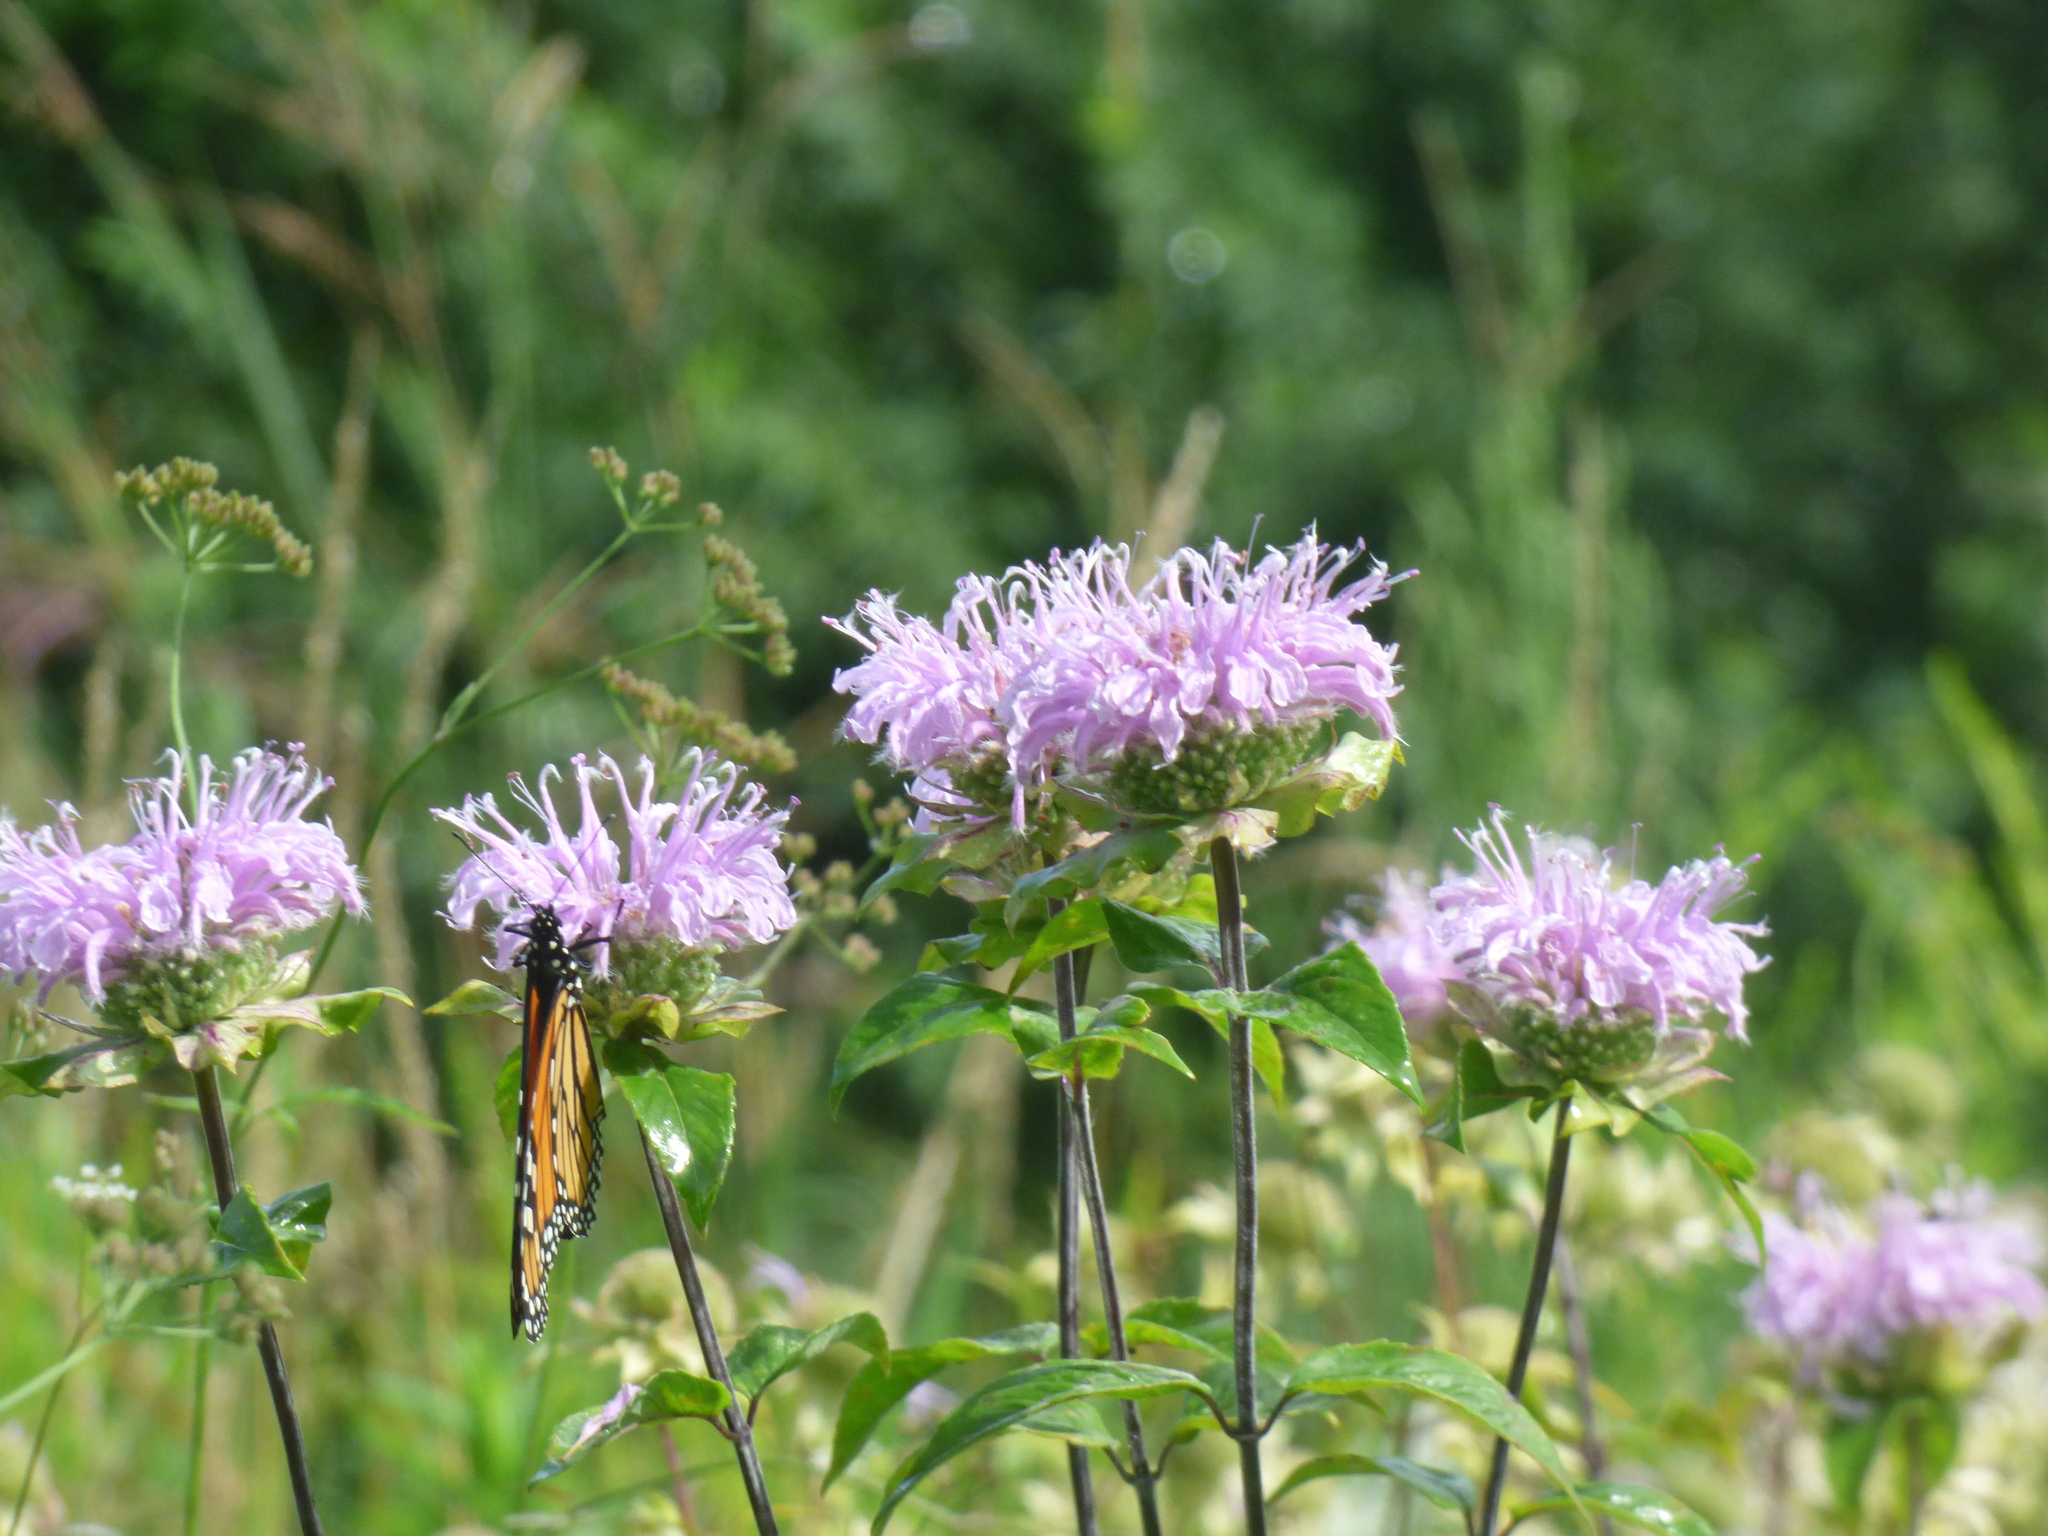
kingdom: Animalia
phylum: Arthropoda
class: Insecta
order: Lepidoptera
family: Nymphalidae
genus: Danaus
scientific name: Danaus plexippus
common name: Monarch
